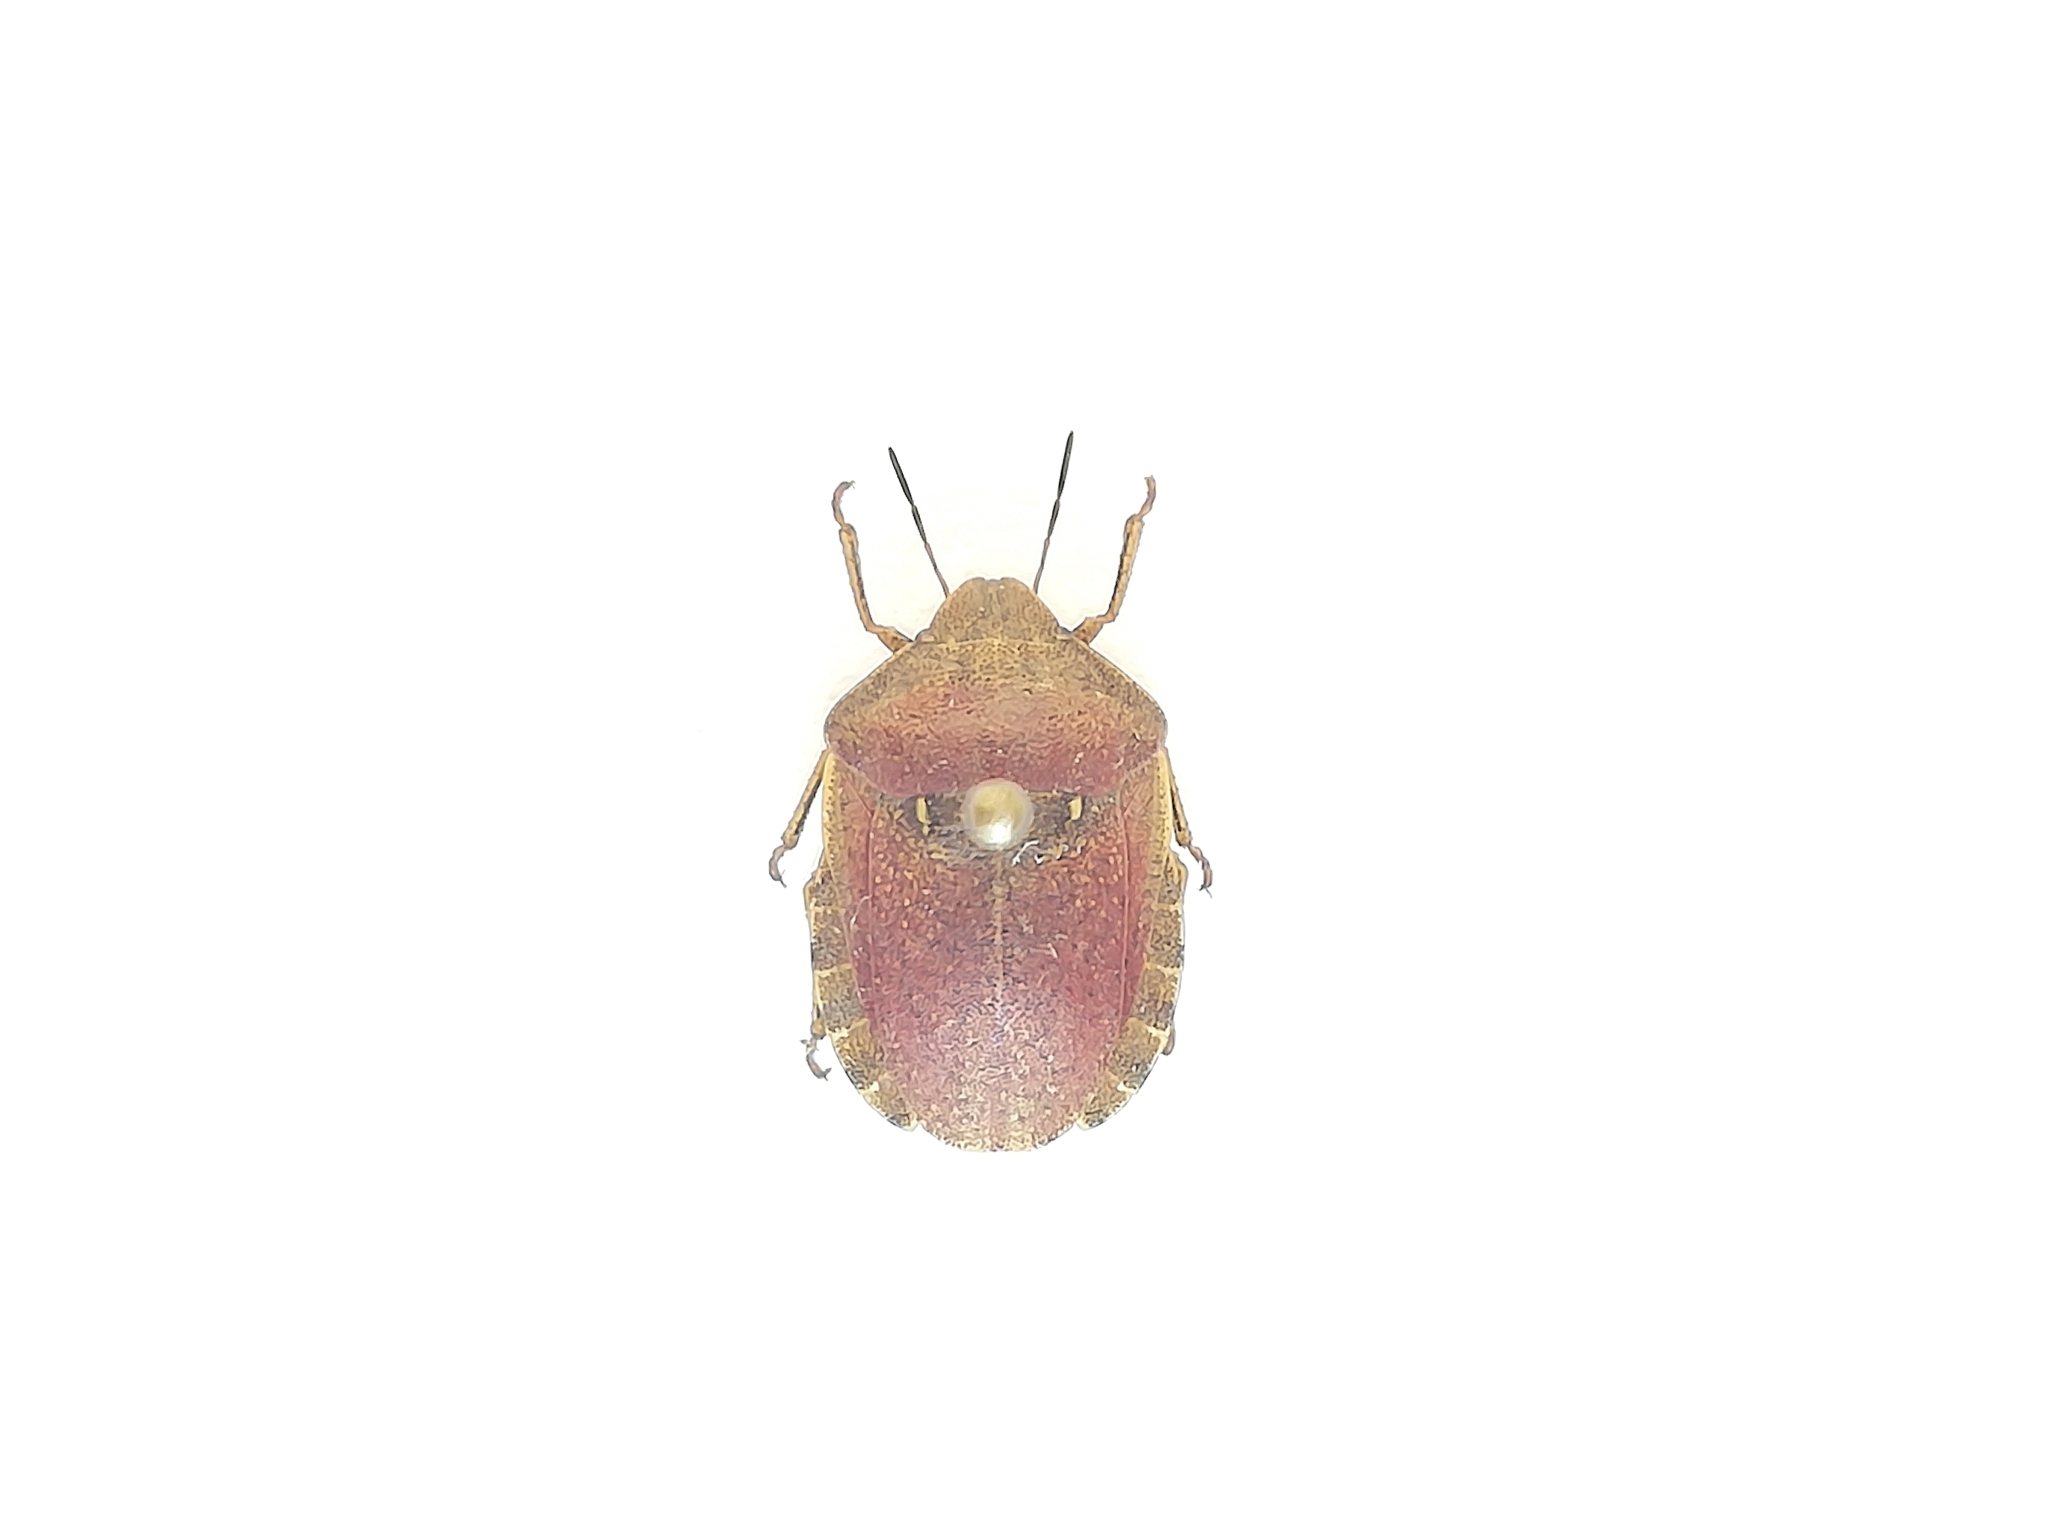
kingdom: Animalia
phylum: Arthropoda
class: Insecta
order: Hemiptera
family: Scutelleridae
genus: Eurygaster
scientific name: Eurygaster testudinaria
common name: Tortoise bug
